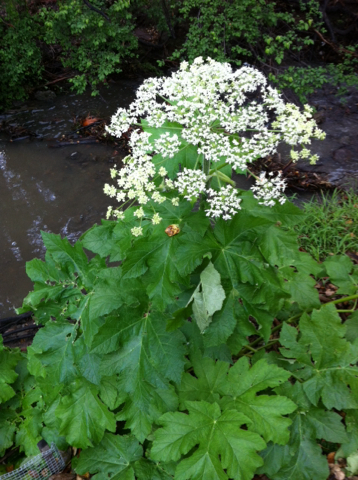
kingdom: Plantae
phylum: Tracheophyta
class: Magnoliopsida
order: Apiales
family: Apiaceae
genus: Heracleum
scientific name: Heracleum maximum
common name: American cow parsnip
